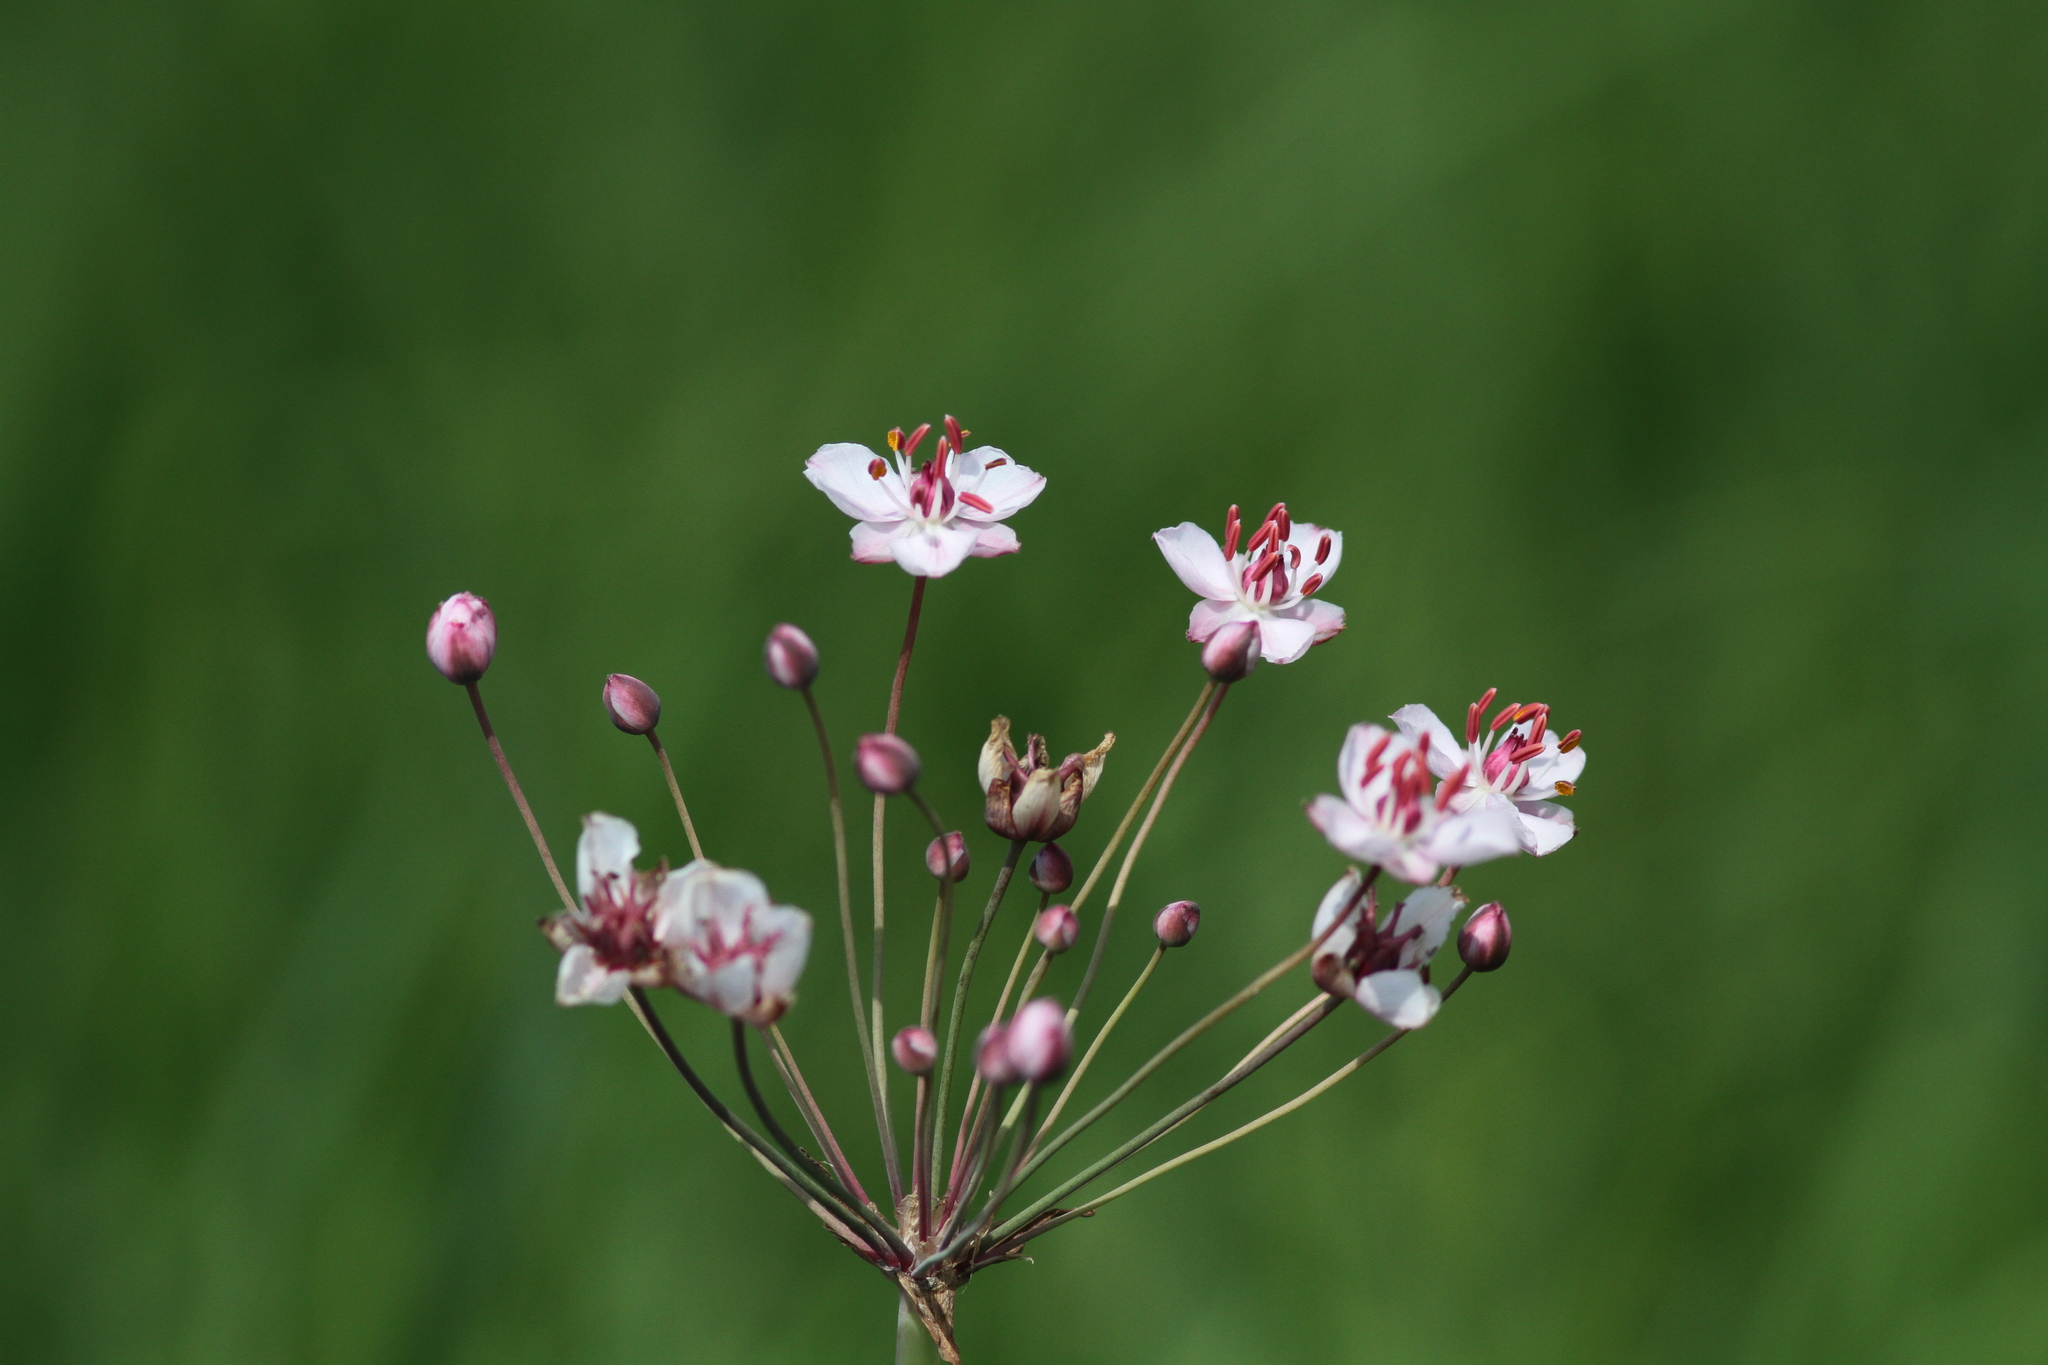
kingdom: Plantae
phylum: Tracheophyta
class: Liliopsida
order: Alismatales
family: Butomaceae
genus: Butomus
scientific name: Butomus umbellatus
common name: Flowering-rush
